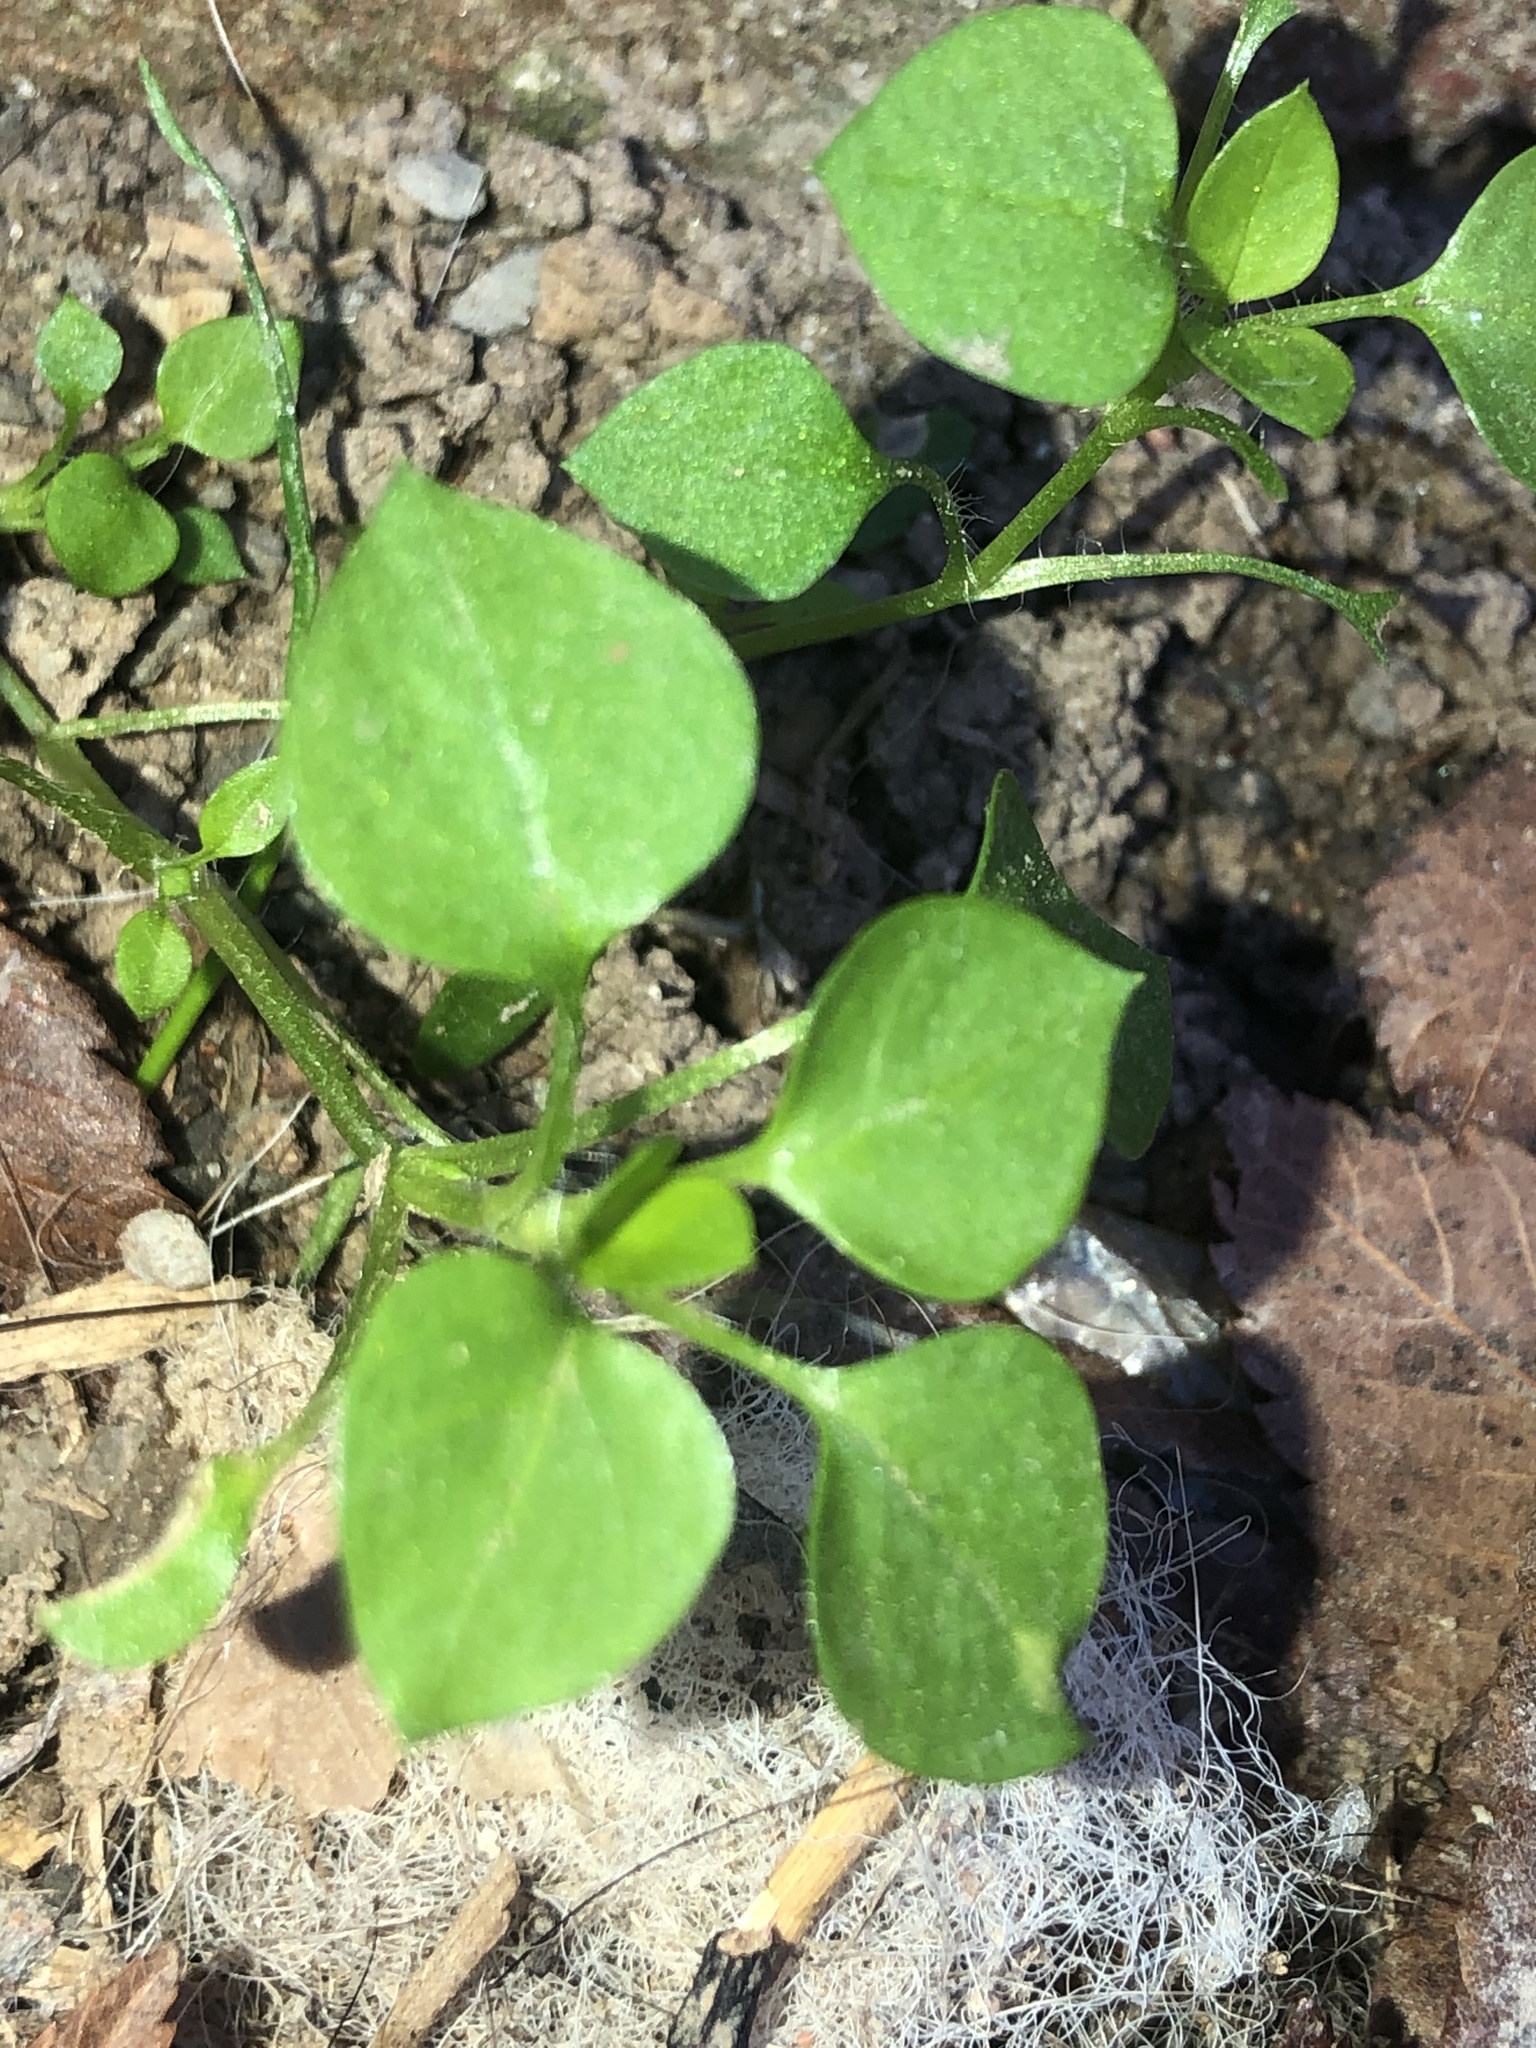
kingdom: Plantae
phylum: Tracheophyta
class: Magnoliopsida
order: Caryophyllales
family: Caryophyllaceae
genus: Stellaria
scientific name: Stellaria media
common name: Common chickweed
